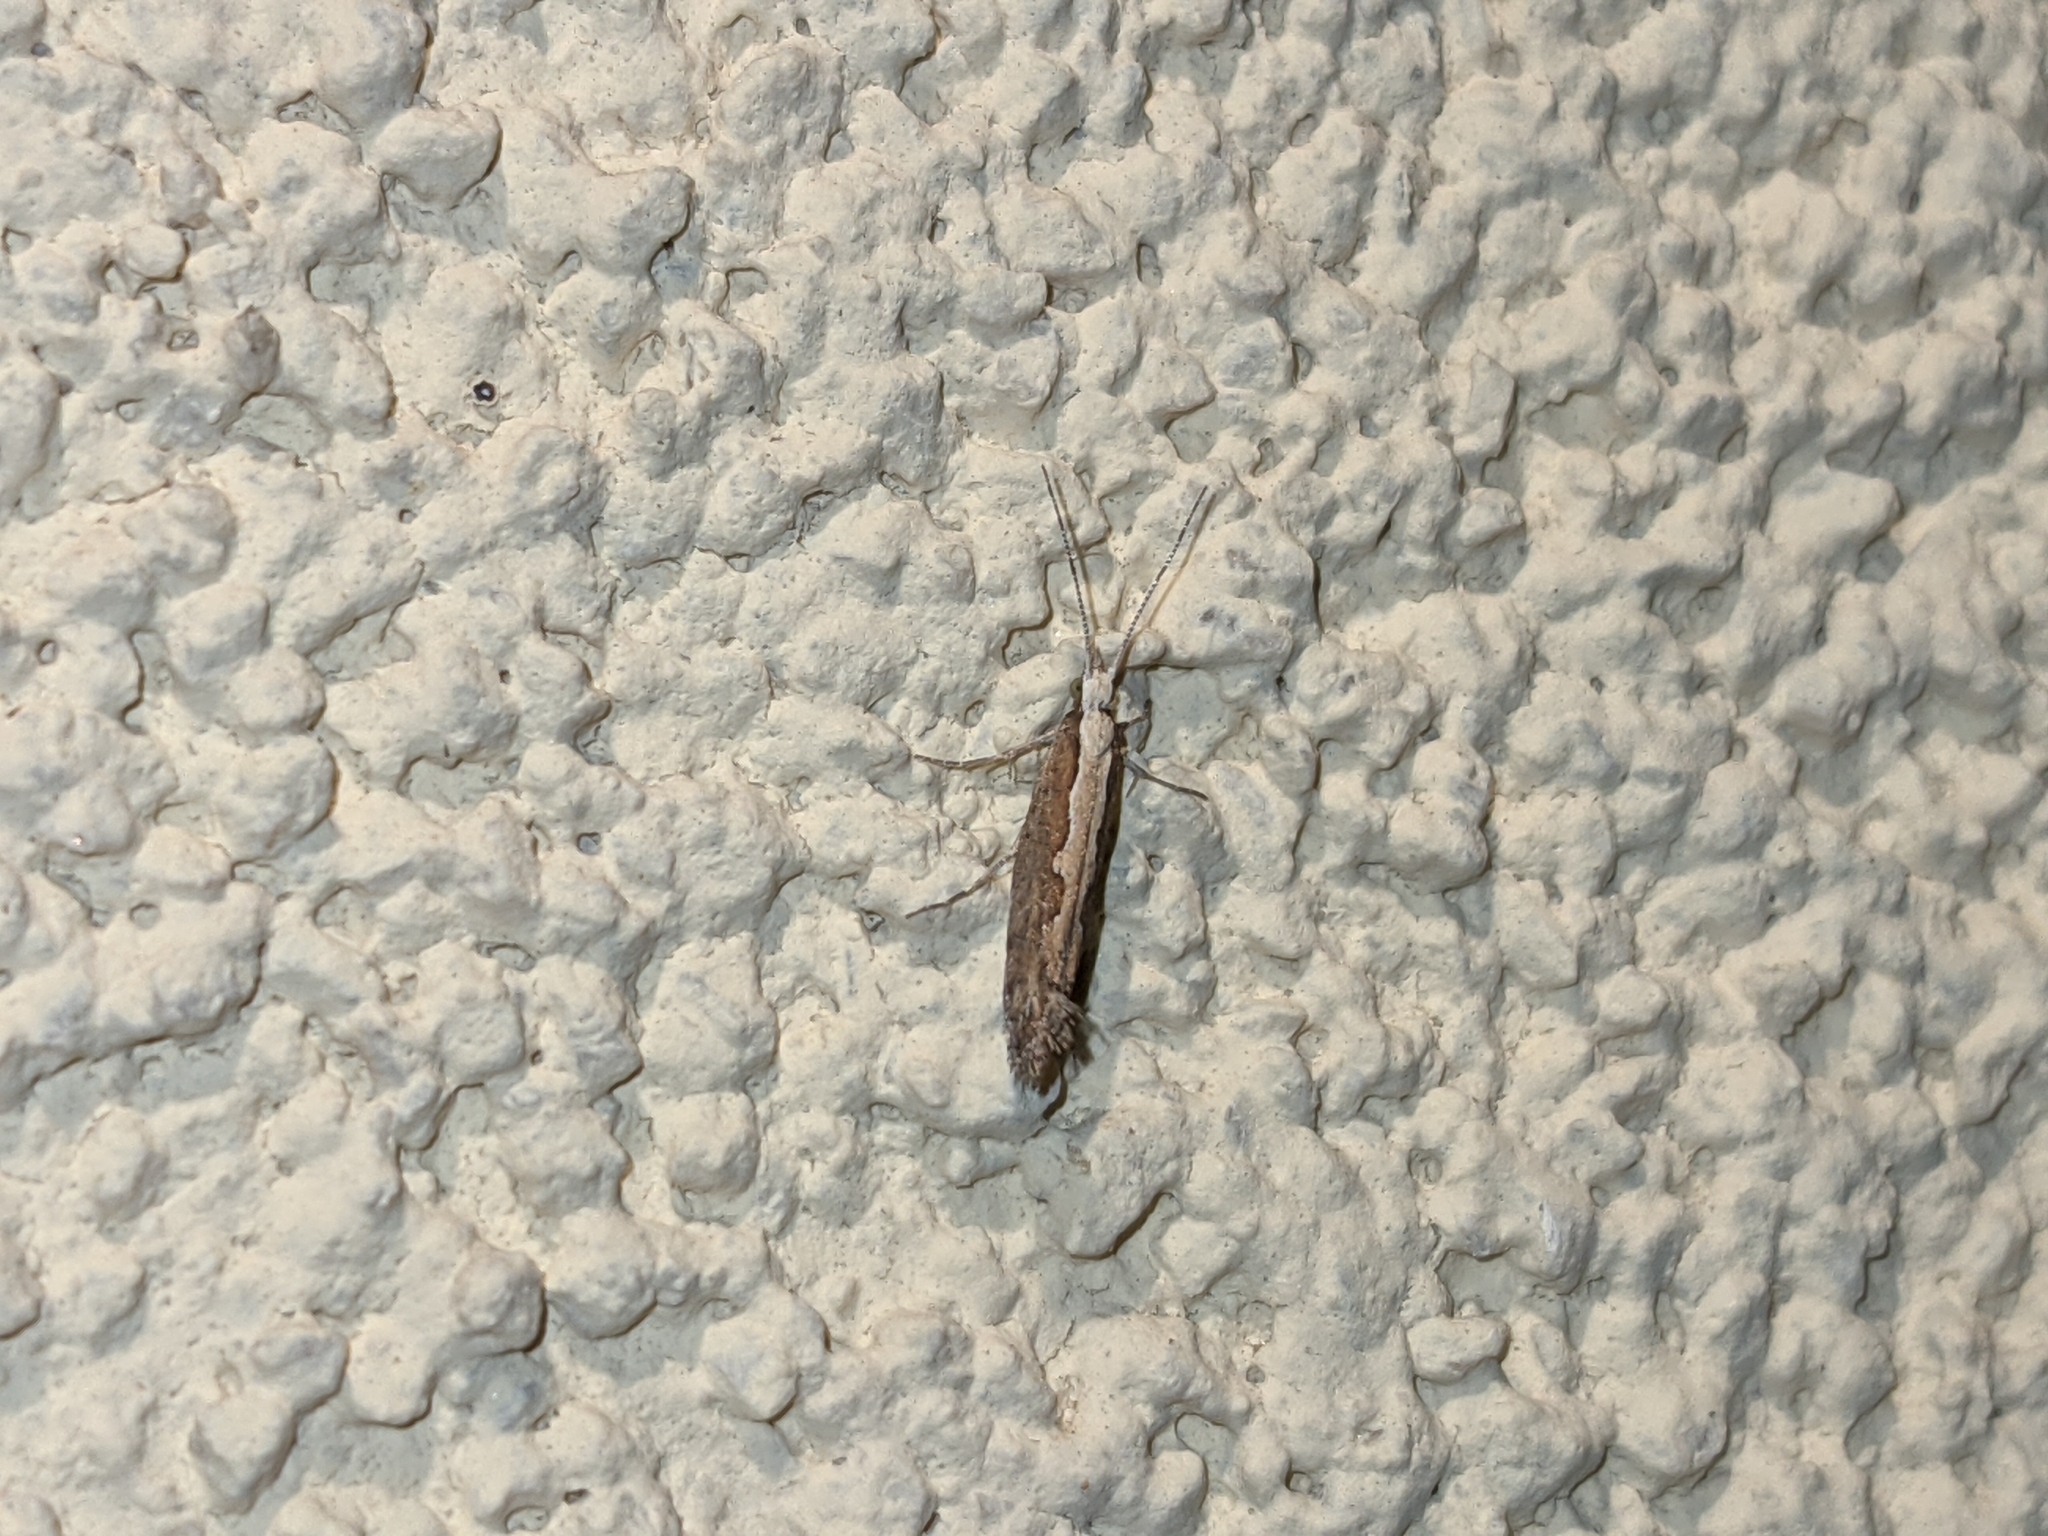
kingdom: Animalia
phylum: Arthropoda
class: Insecta
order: Lepidoptera
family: Plutellidae
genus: Plutella
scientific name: Plutella xylostella
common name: Diamond-back moth
